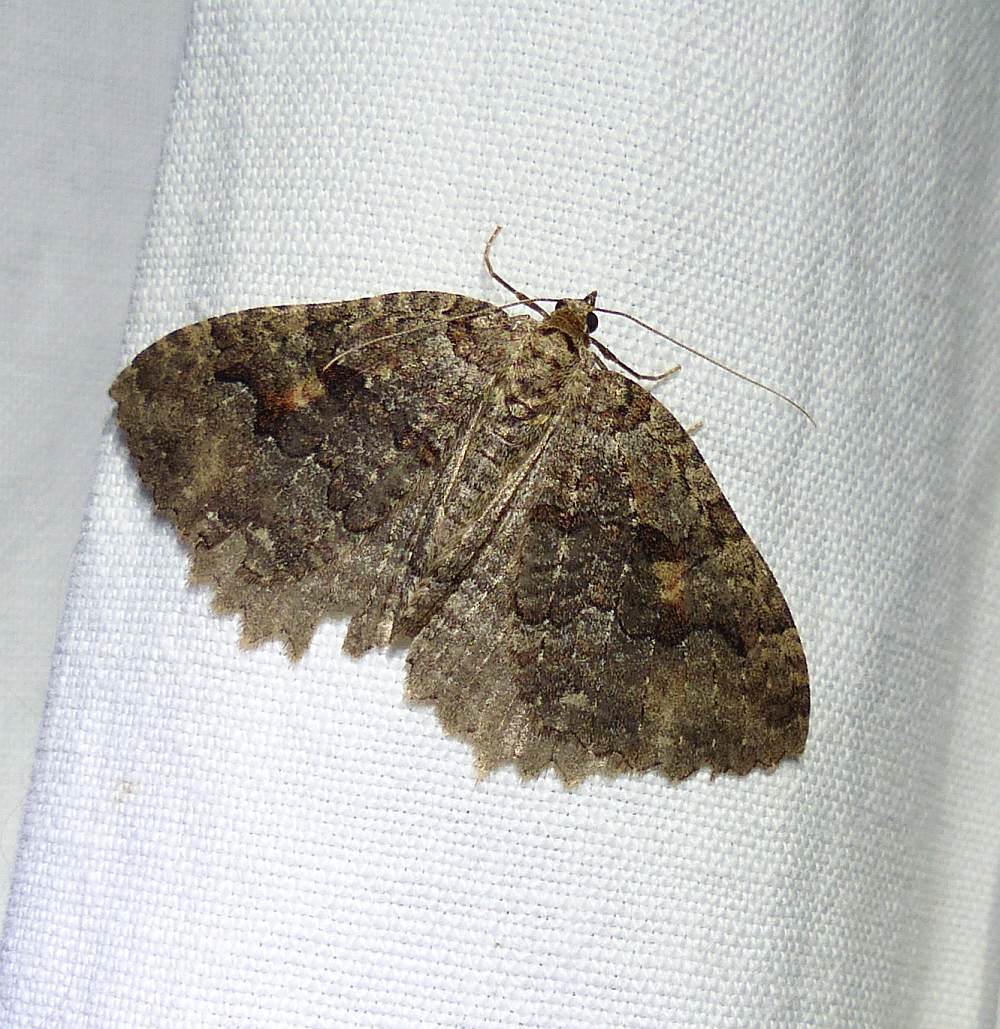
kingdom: Animalia
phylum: Arthropoda
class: Insecta
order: Lepidoptera
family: Geometridae
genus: Triphosa
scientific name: Triphosa haesitata
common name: Tissue moth
